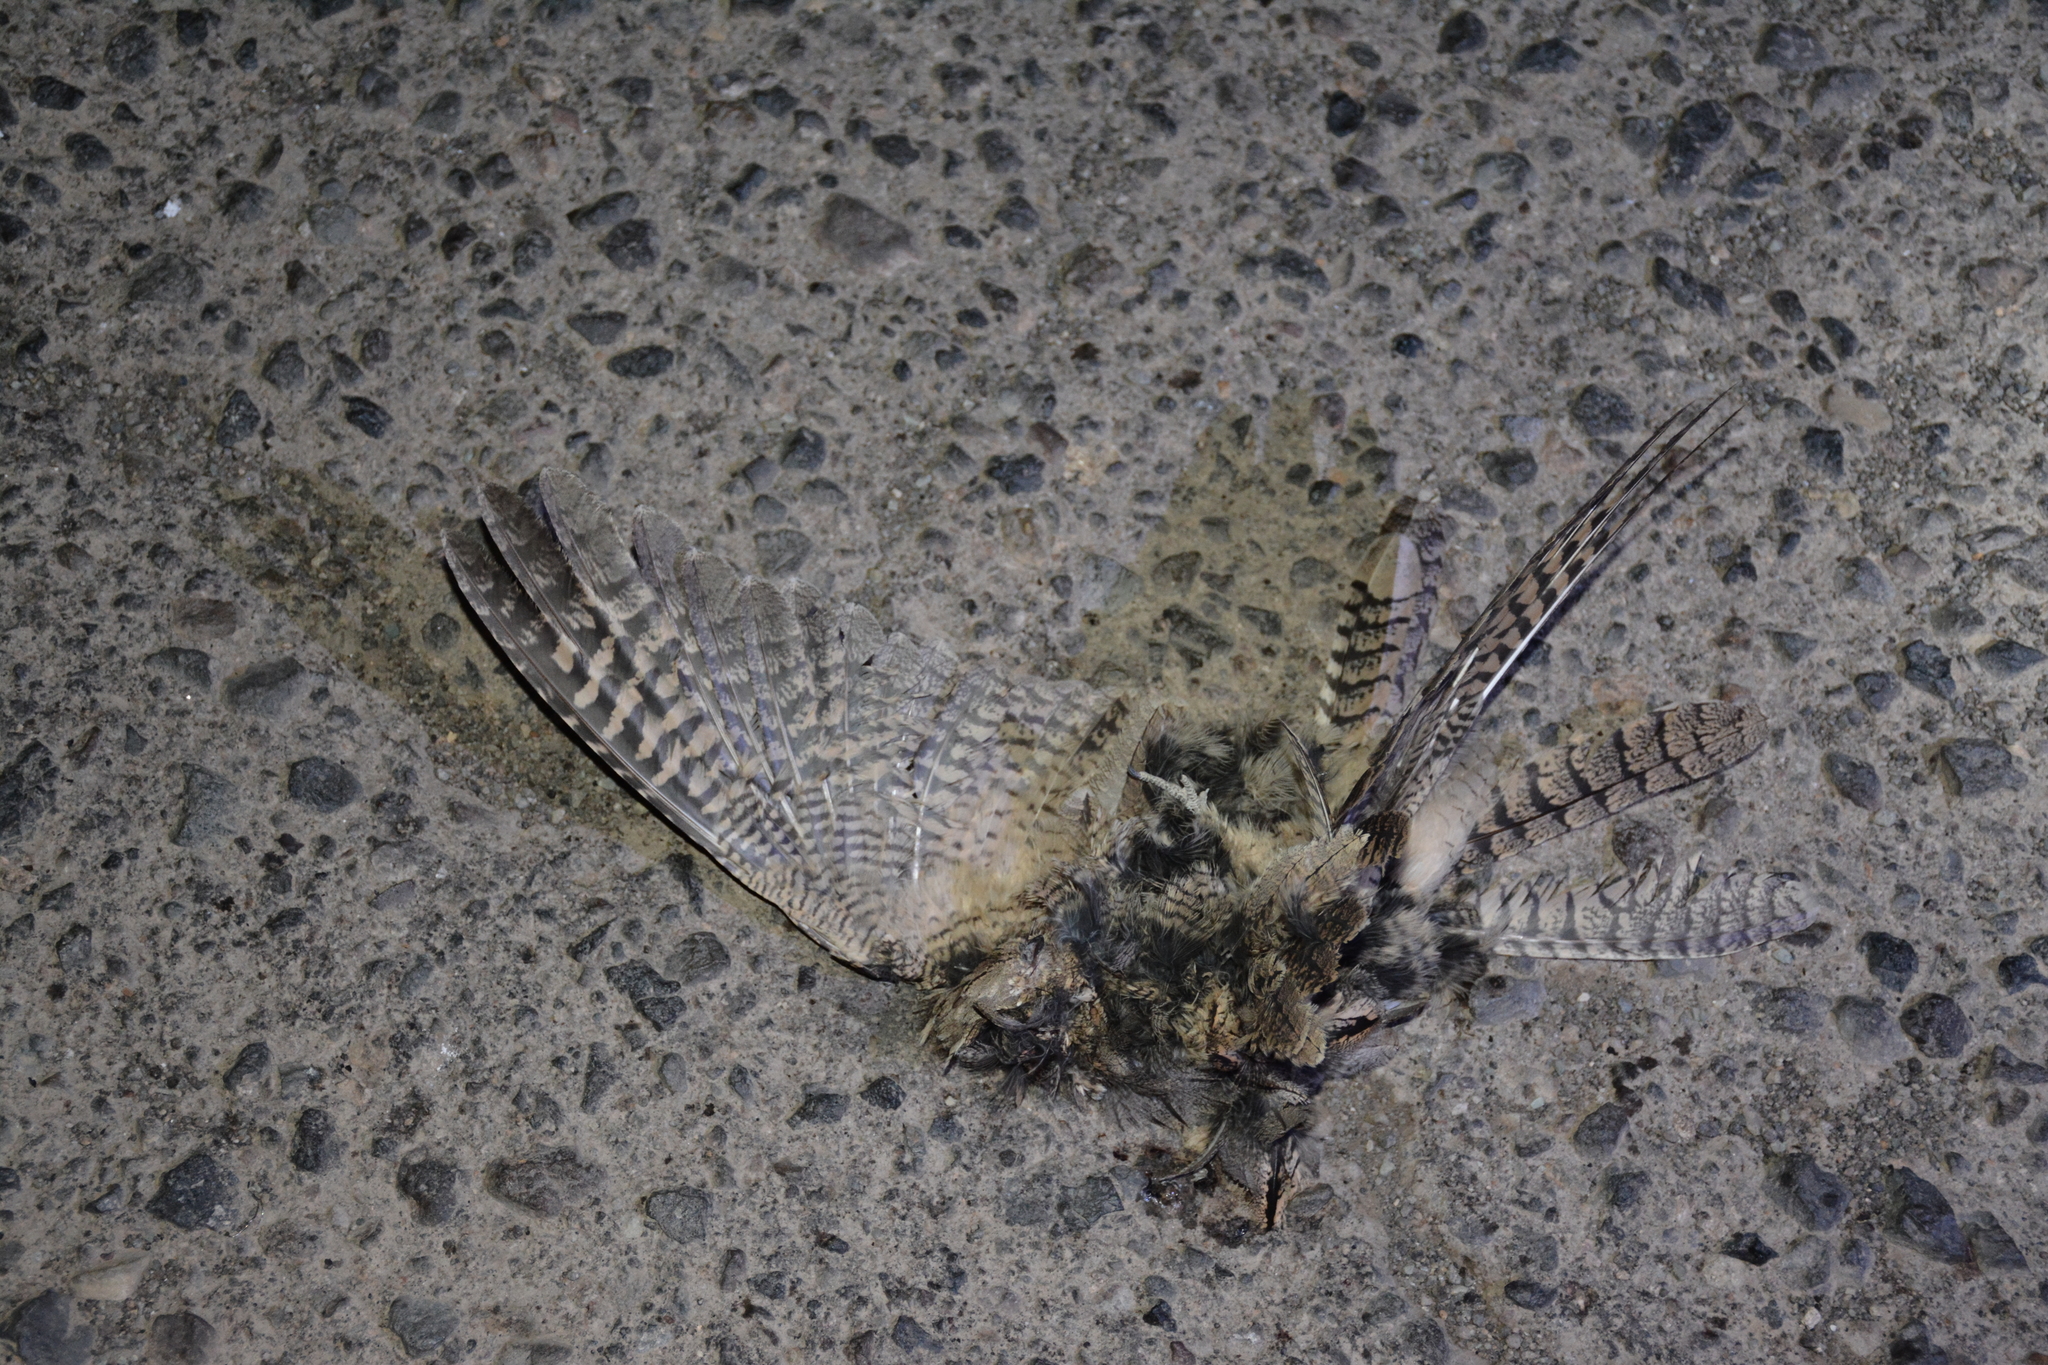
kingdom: Animalia
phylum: Chordata
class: Aves
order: Caprimulgiformes
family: Caprimulgidae
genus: Caprimulgus
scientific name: Caprimulgus europaeus
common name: European nightjar
